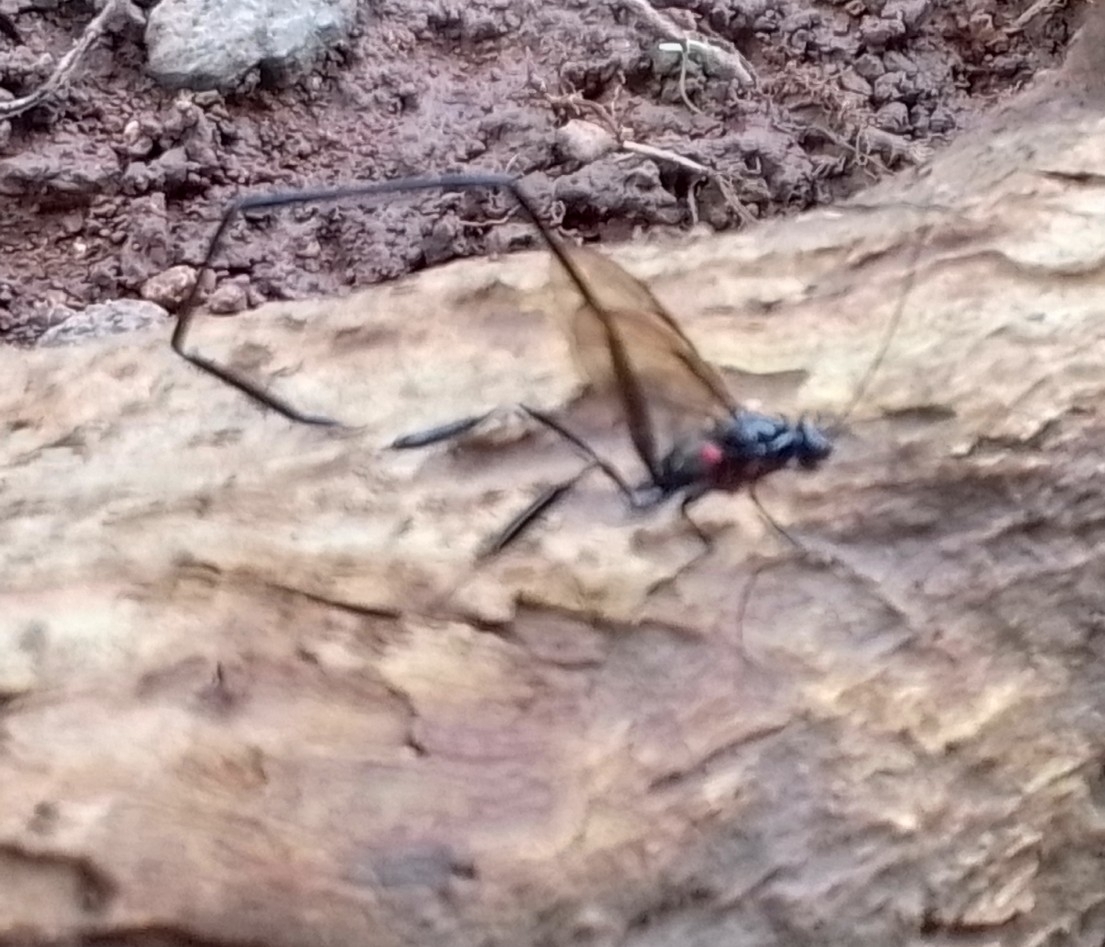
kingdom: Animalia
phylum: Arthropoda
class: Insecta
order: Hymenoptera
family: Pelecinidae
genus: Pelecinus
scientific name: Pelecinus polyturator
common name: American pelecinid wasp
